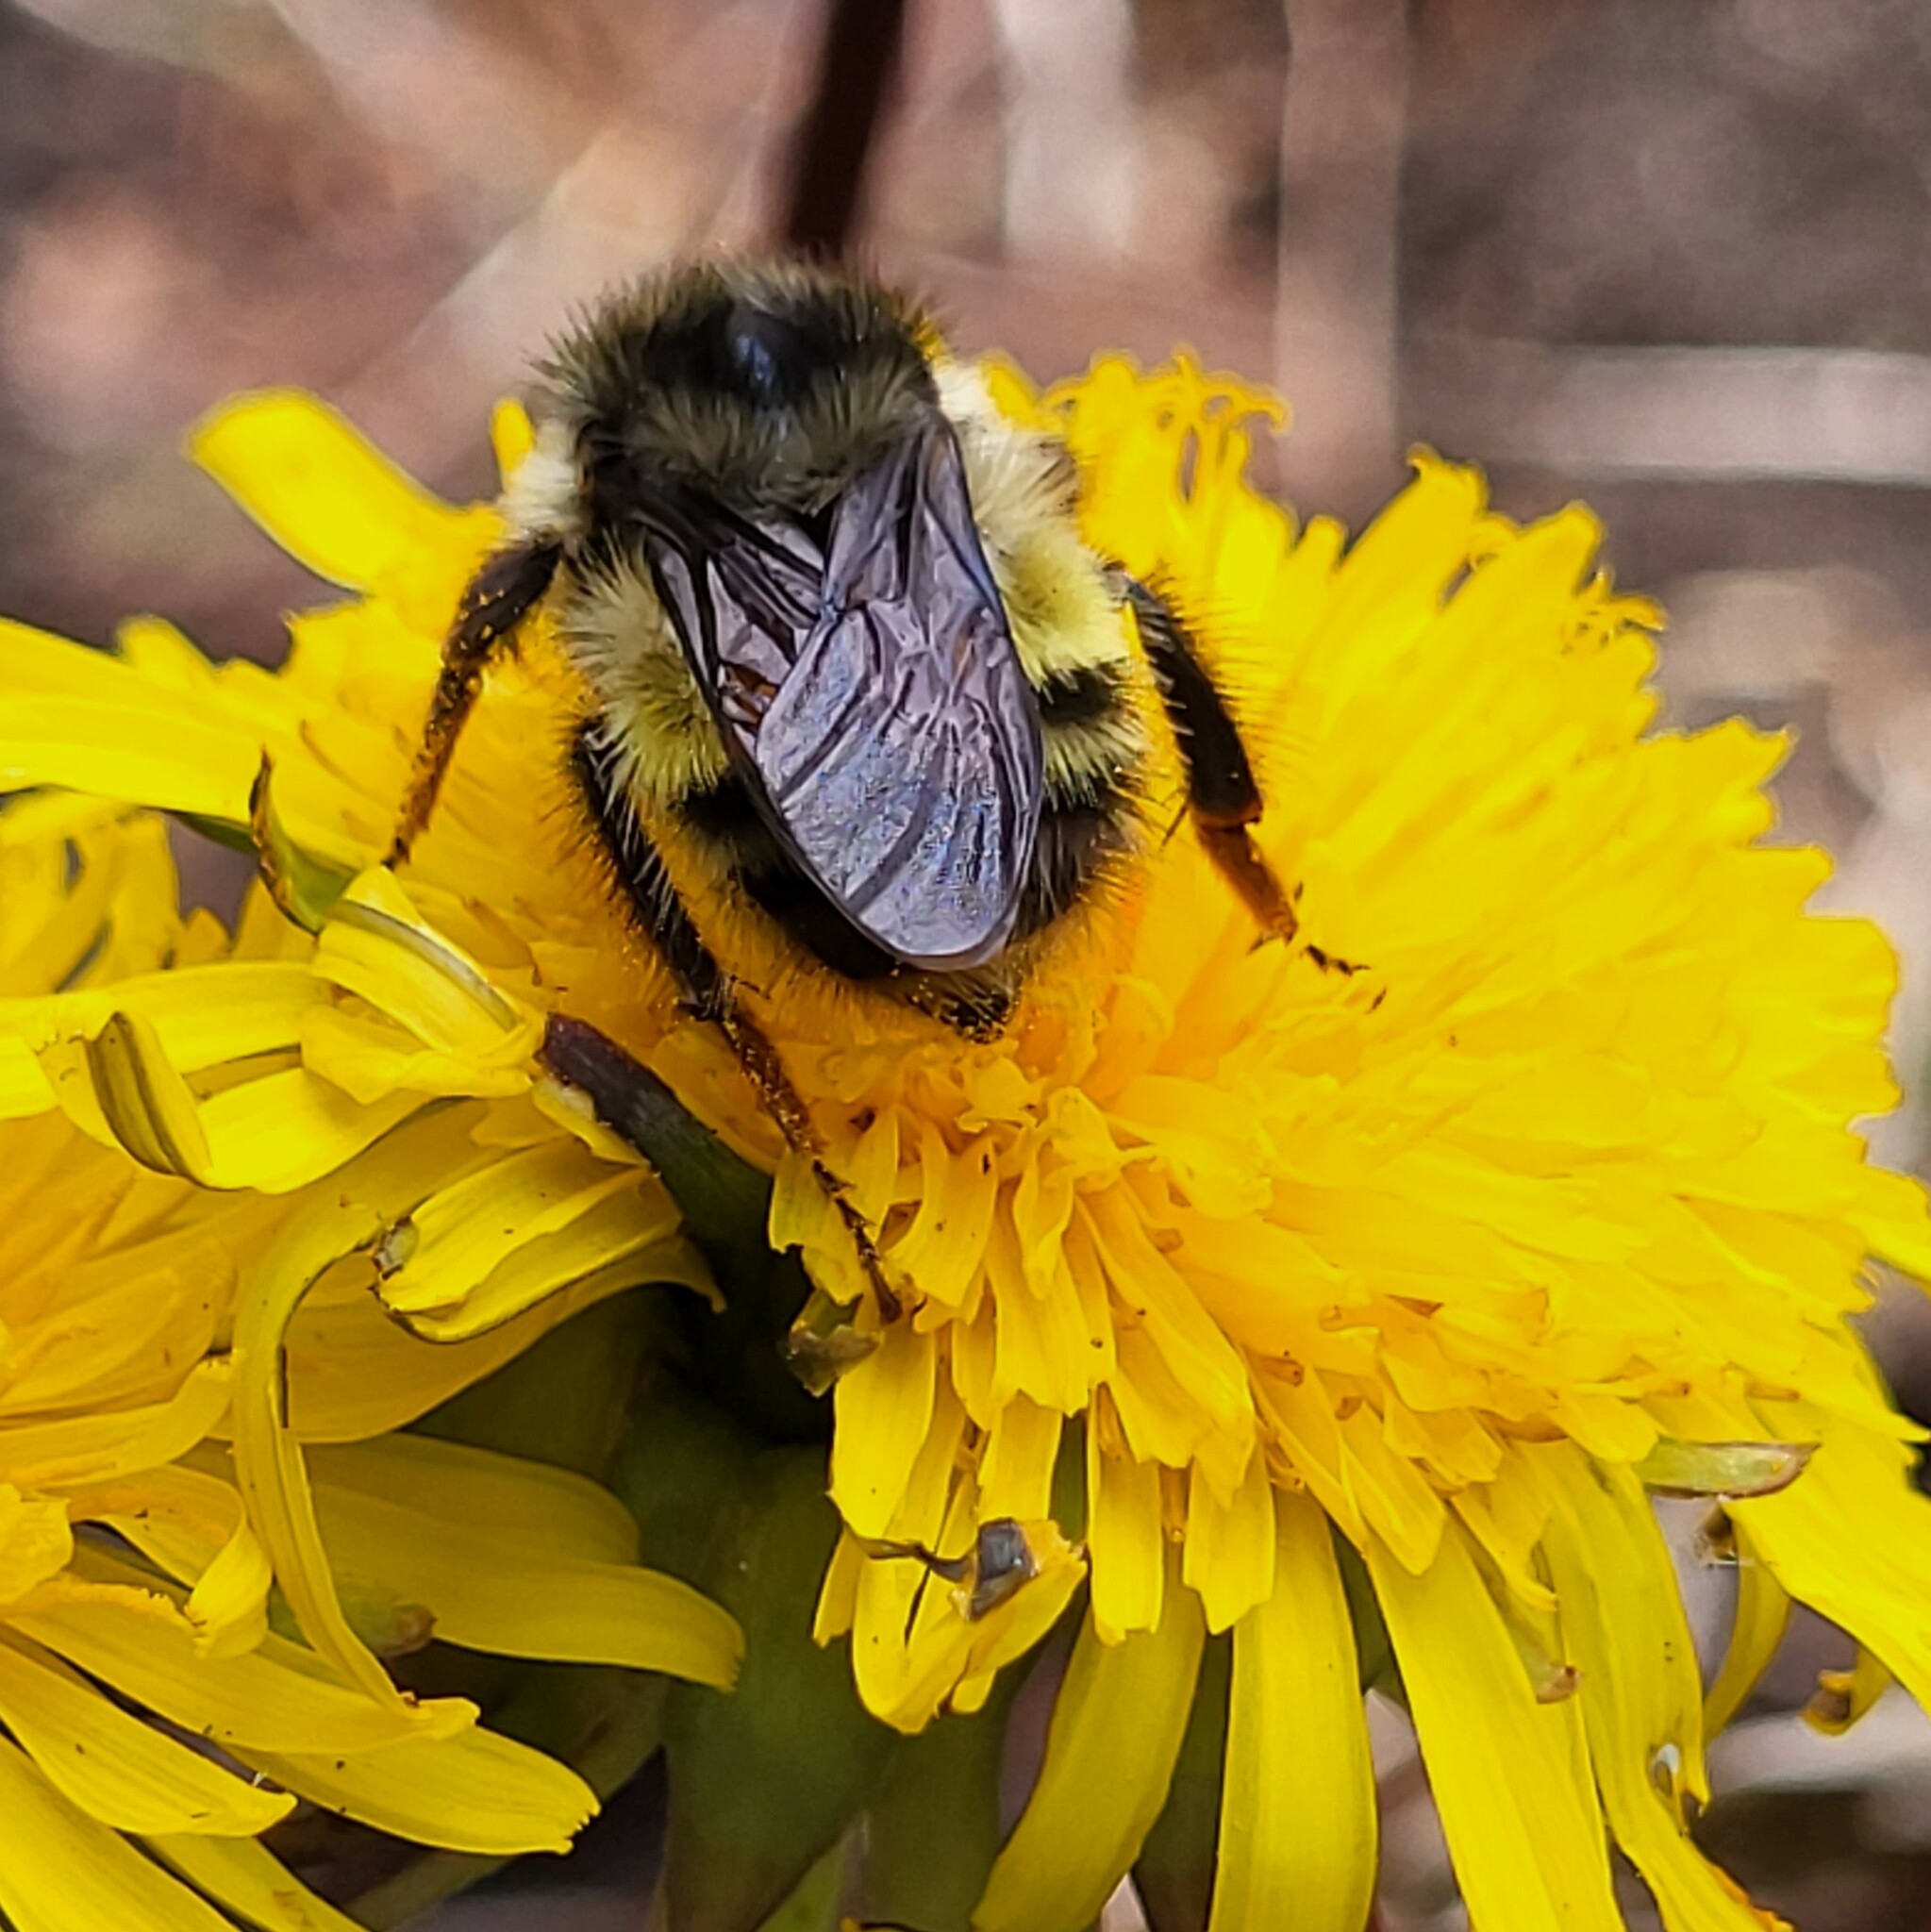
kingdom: Animalia
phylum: Arthropoda
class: Insecta
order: Hymenoptera
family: Apidae
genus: Bombus
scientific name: Bombus flavifrons
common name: Yellow head bumble bee
